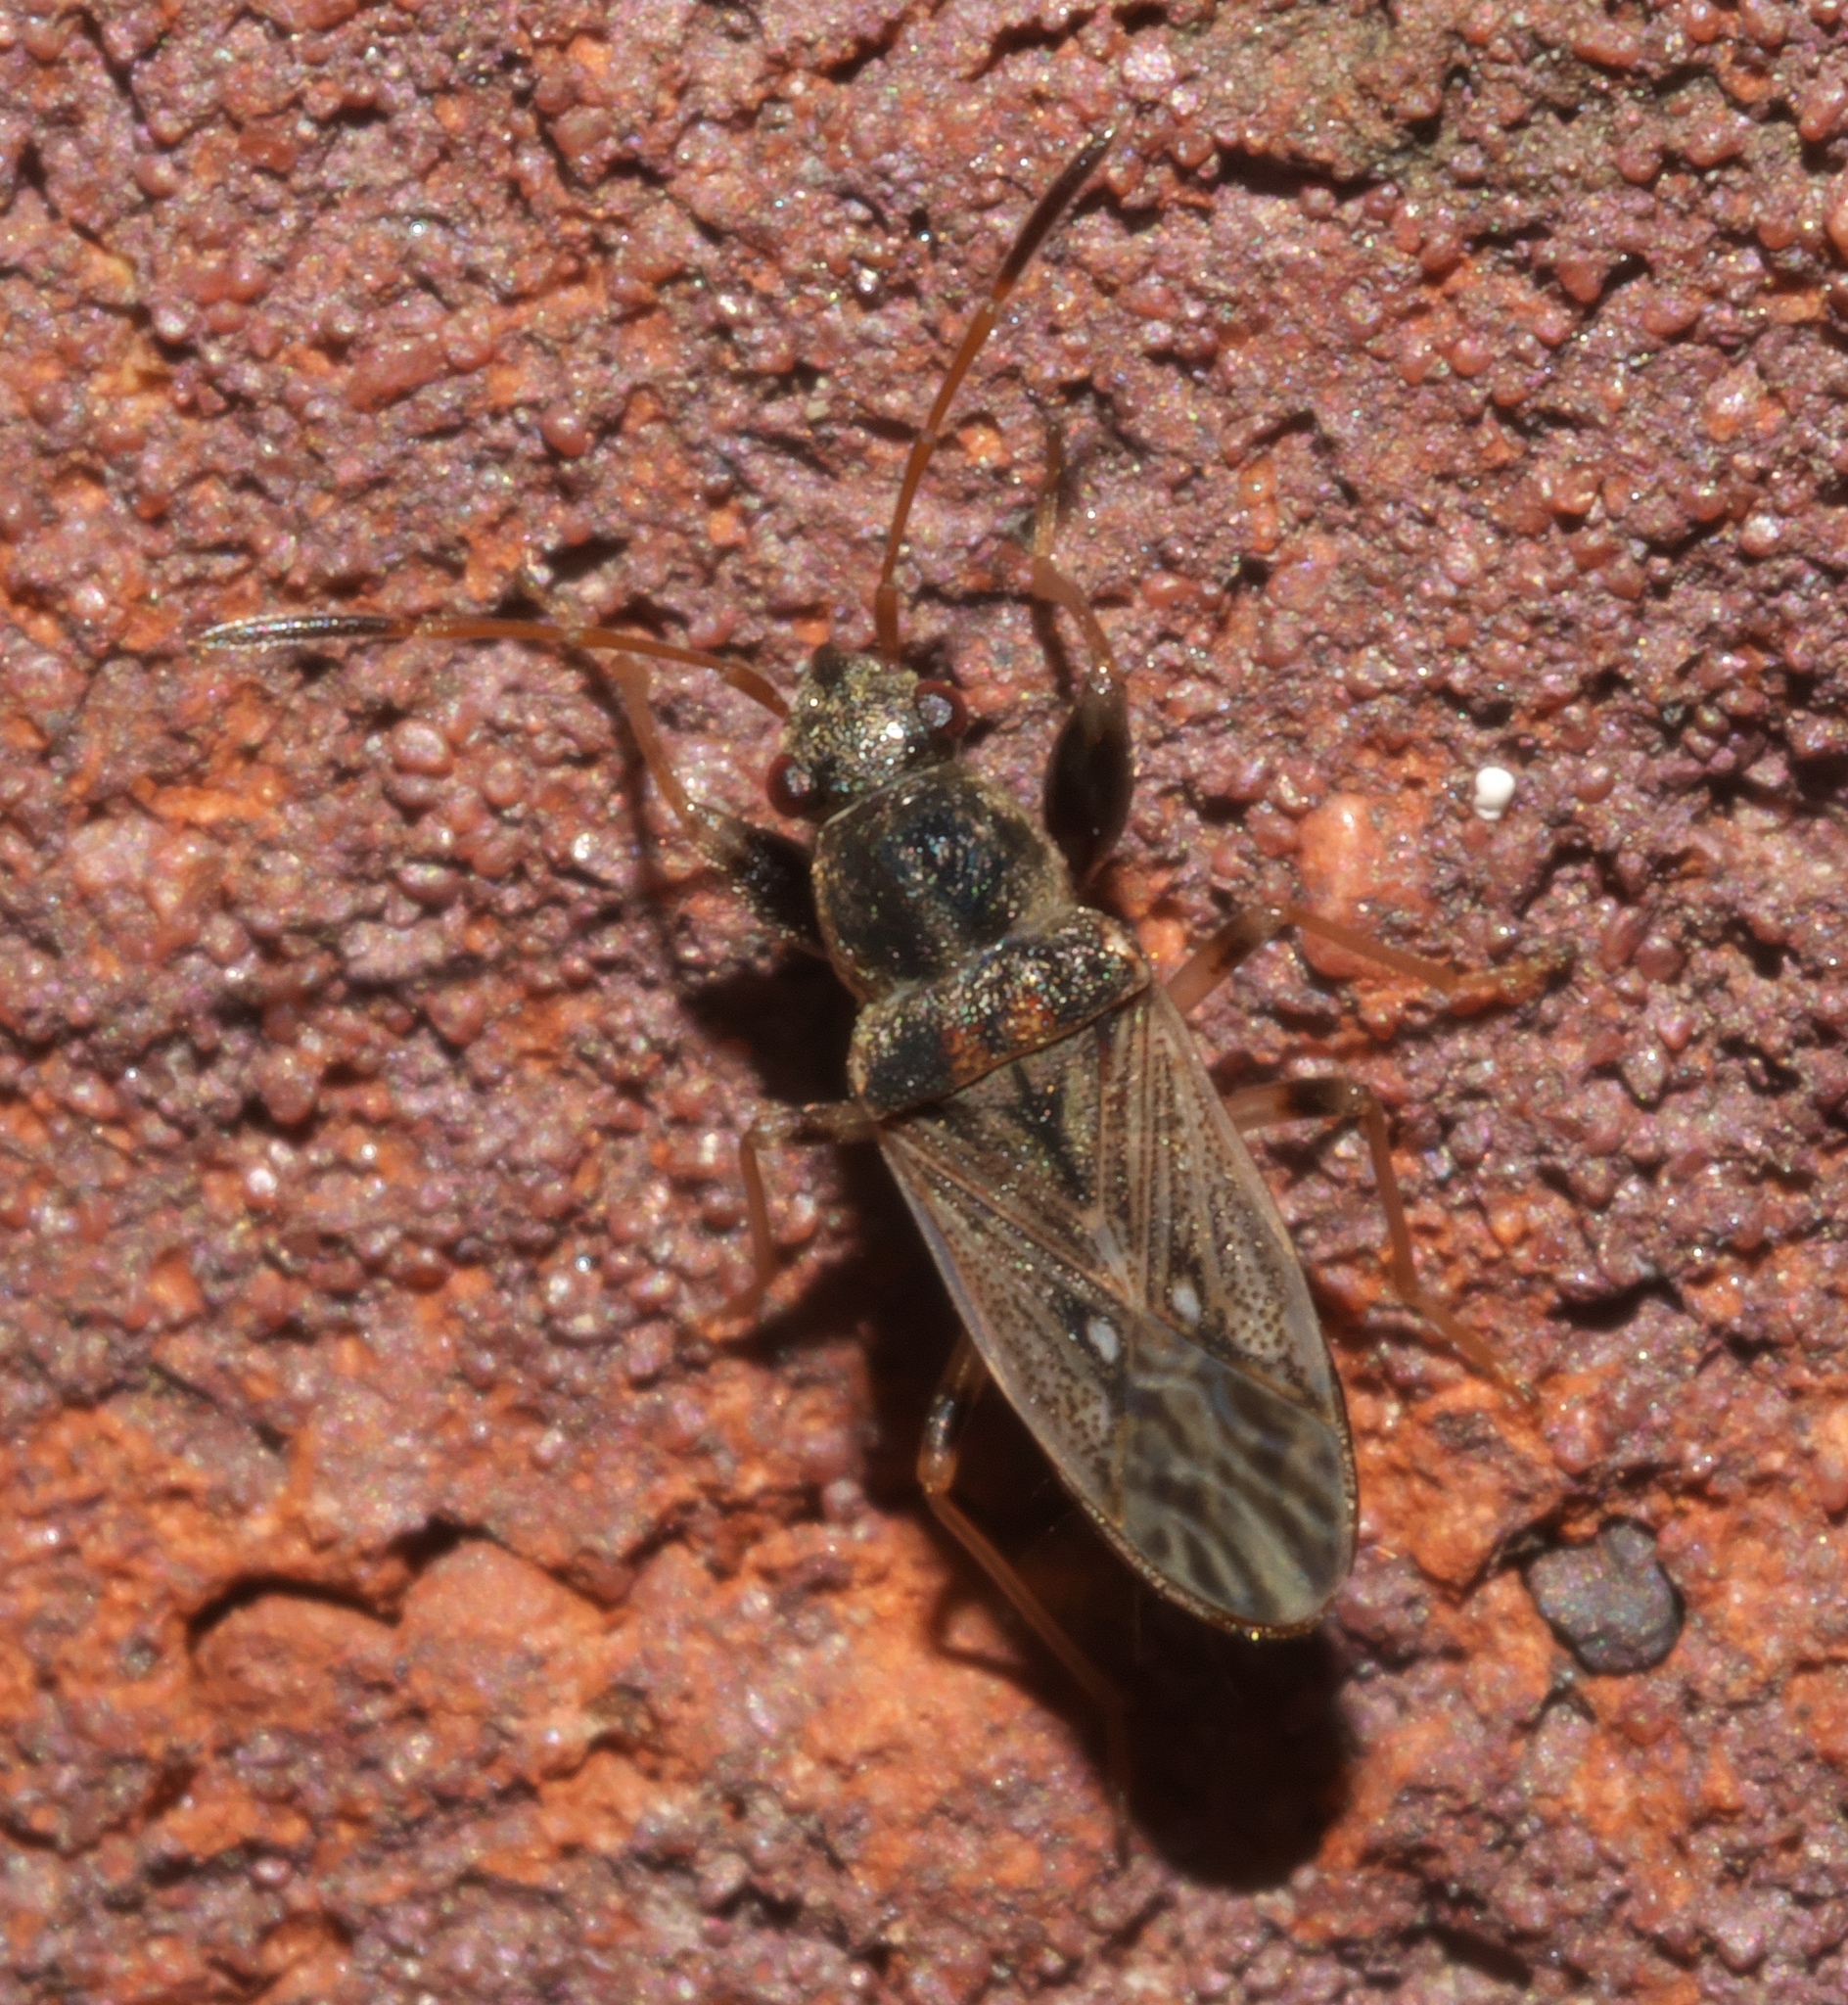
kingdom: Animalia
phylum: Arthropoda
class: Insecta
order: Hemiptera
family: Rhyparochromidae
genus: Pseudopachybrachius
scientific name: Pseudopachybrachius basalis
